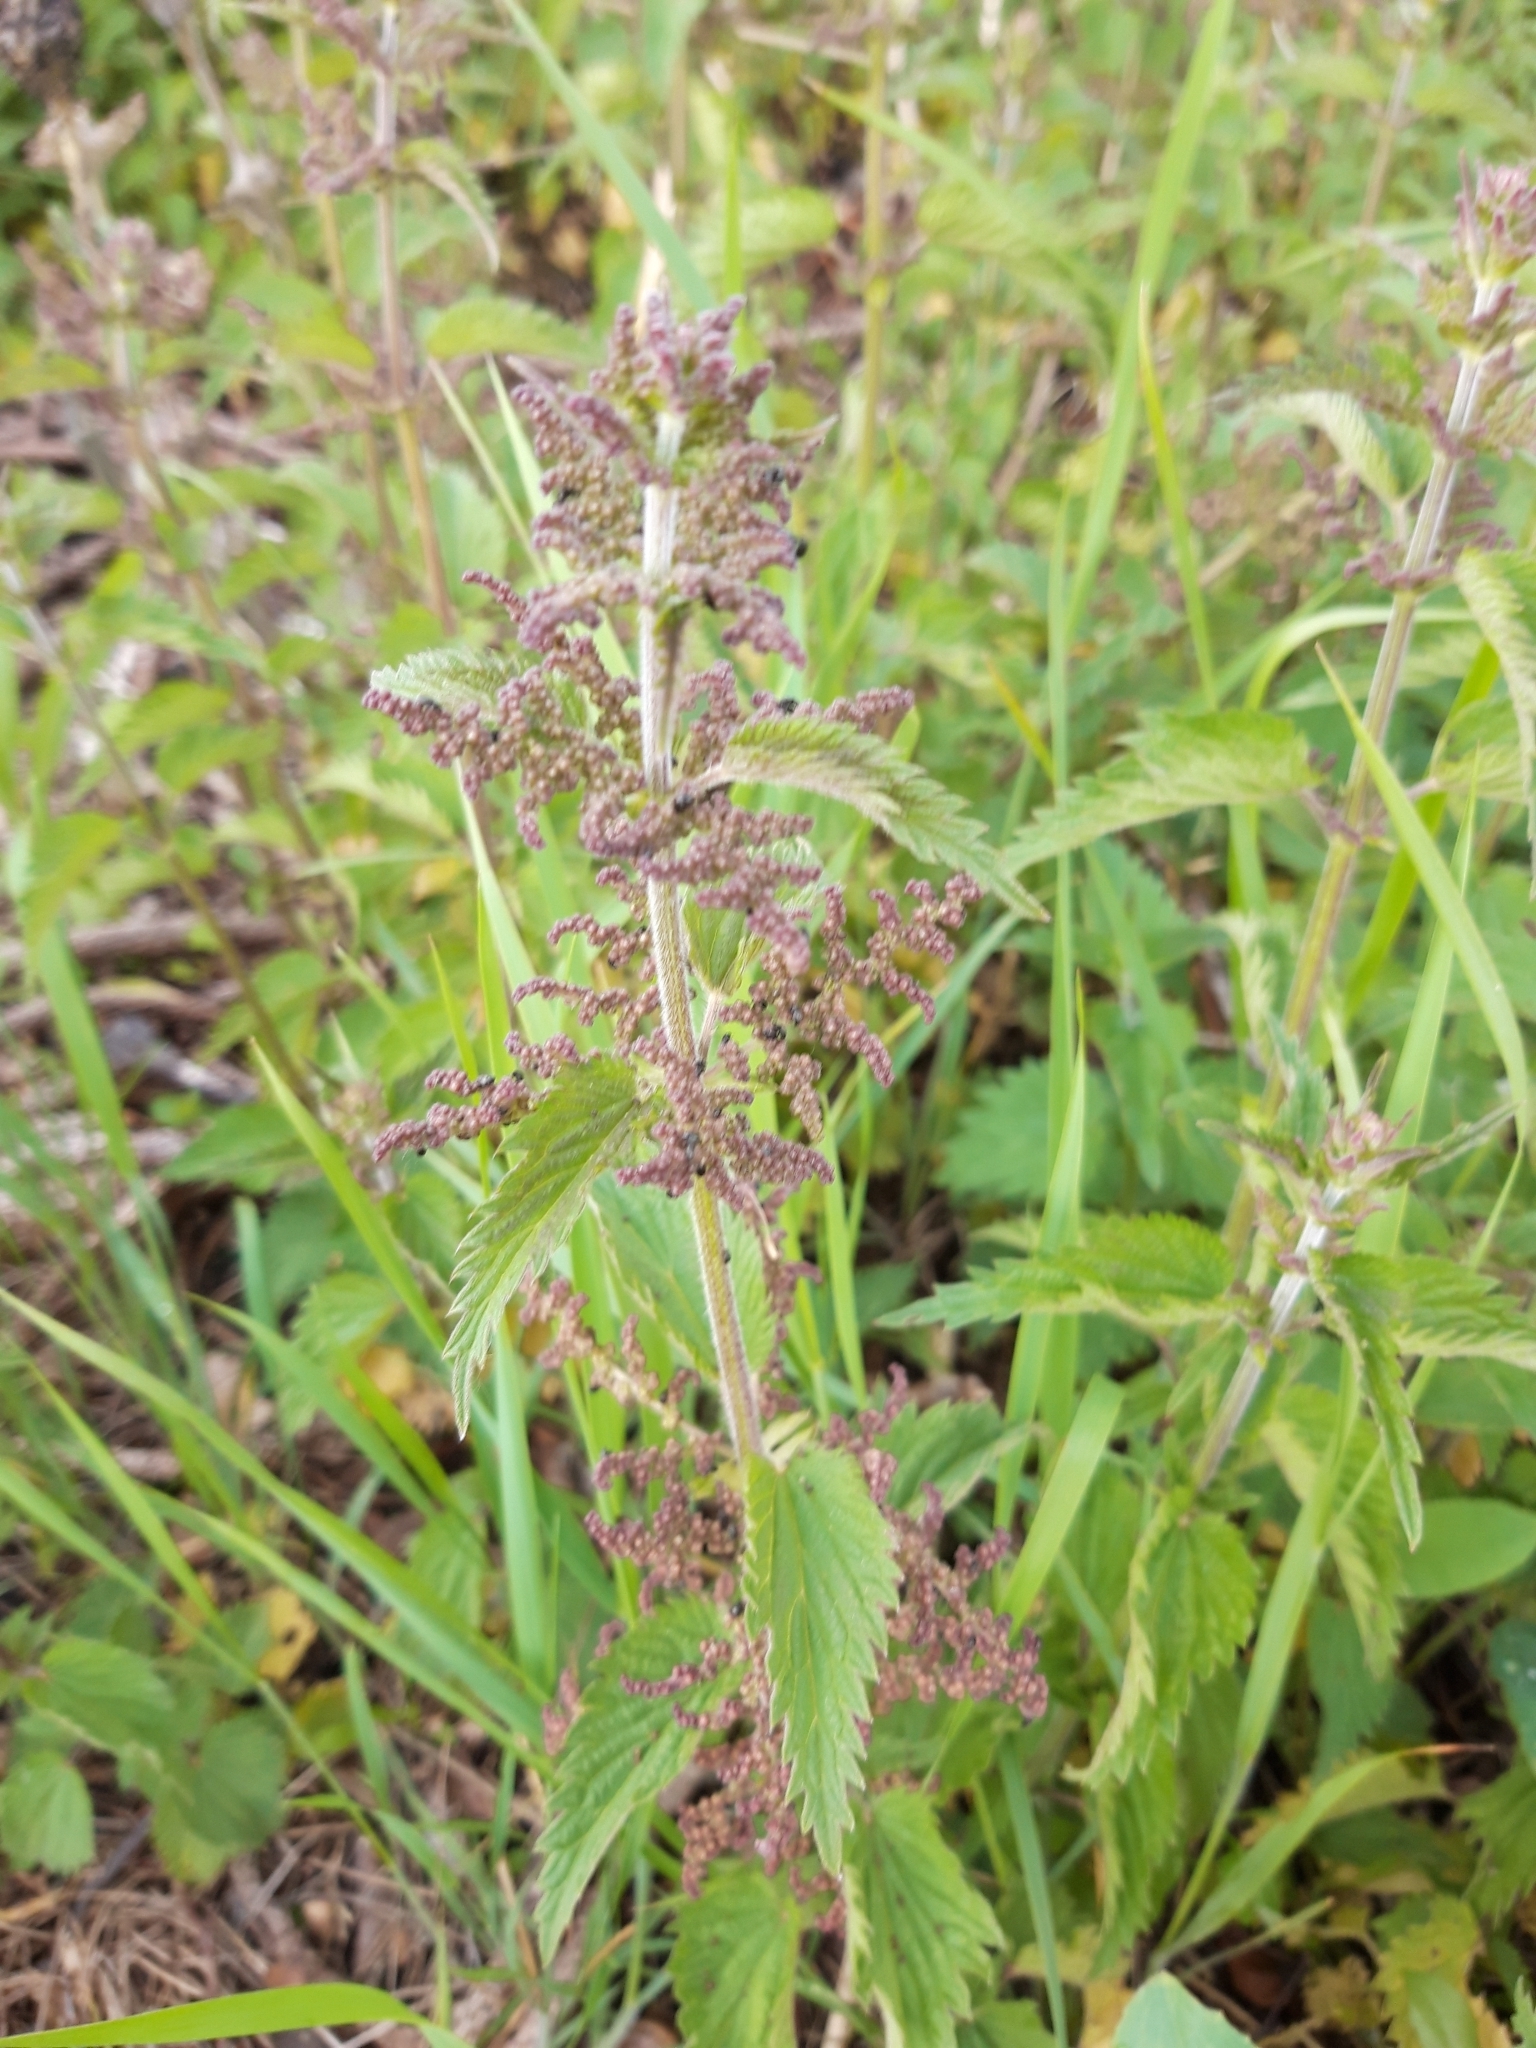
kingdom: Plantae
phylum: Tracheophyta
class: Magnoliopsida
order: Rosales
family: Urticaceae
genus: Urtica
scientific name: Urtica dioica
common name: Common nettle
